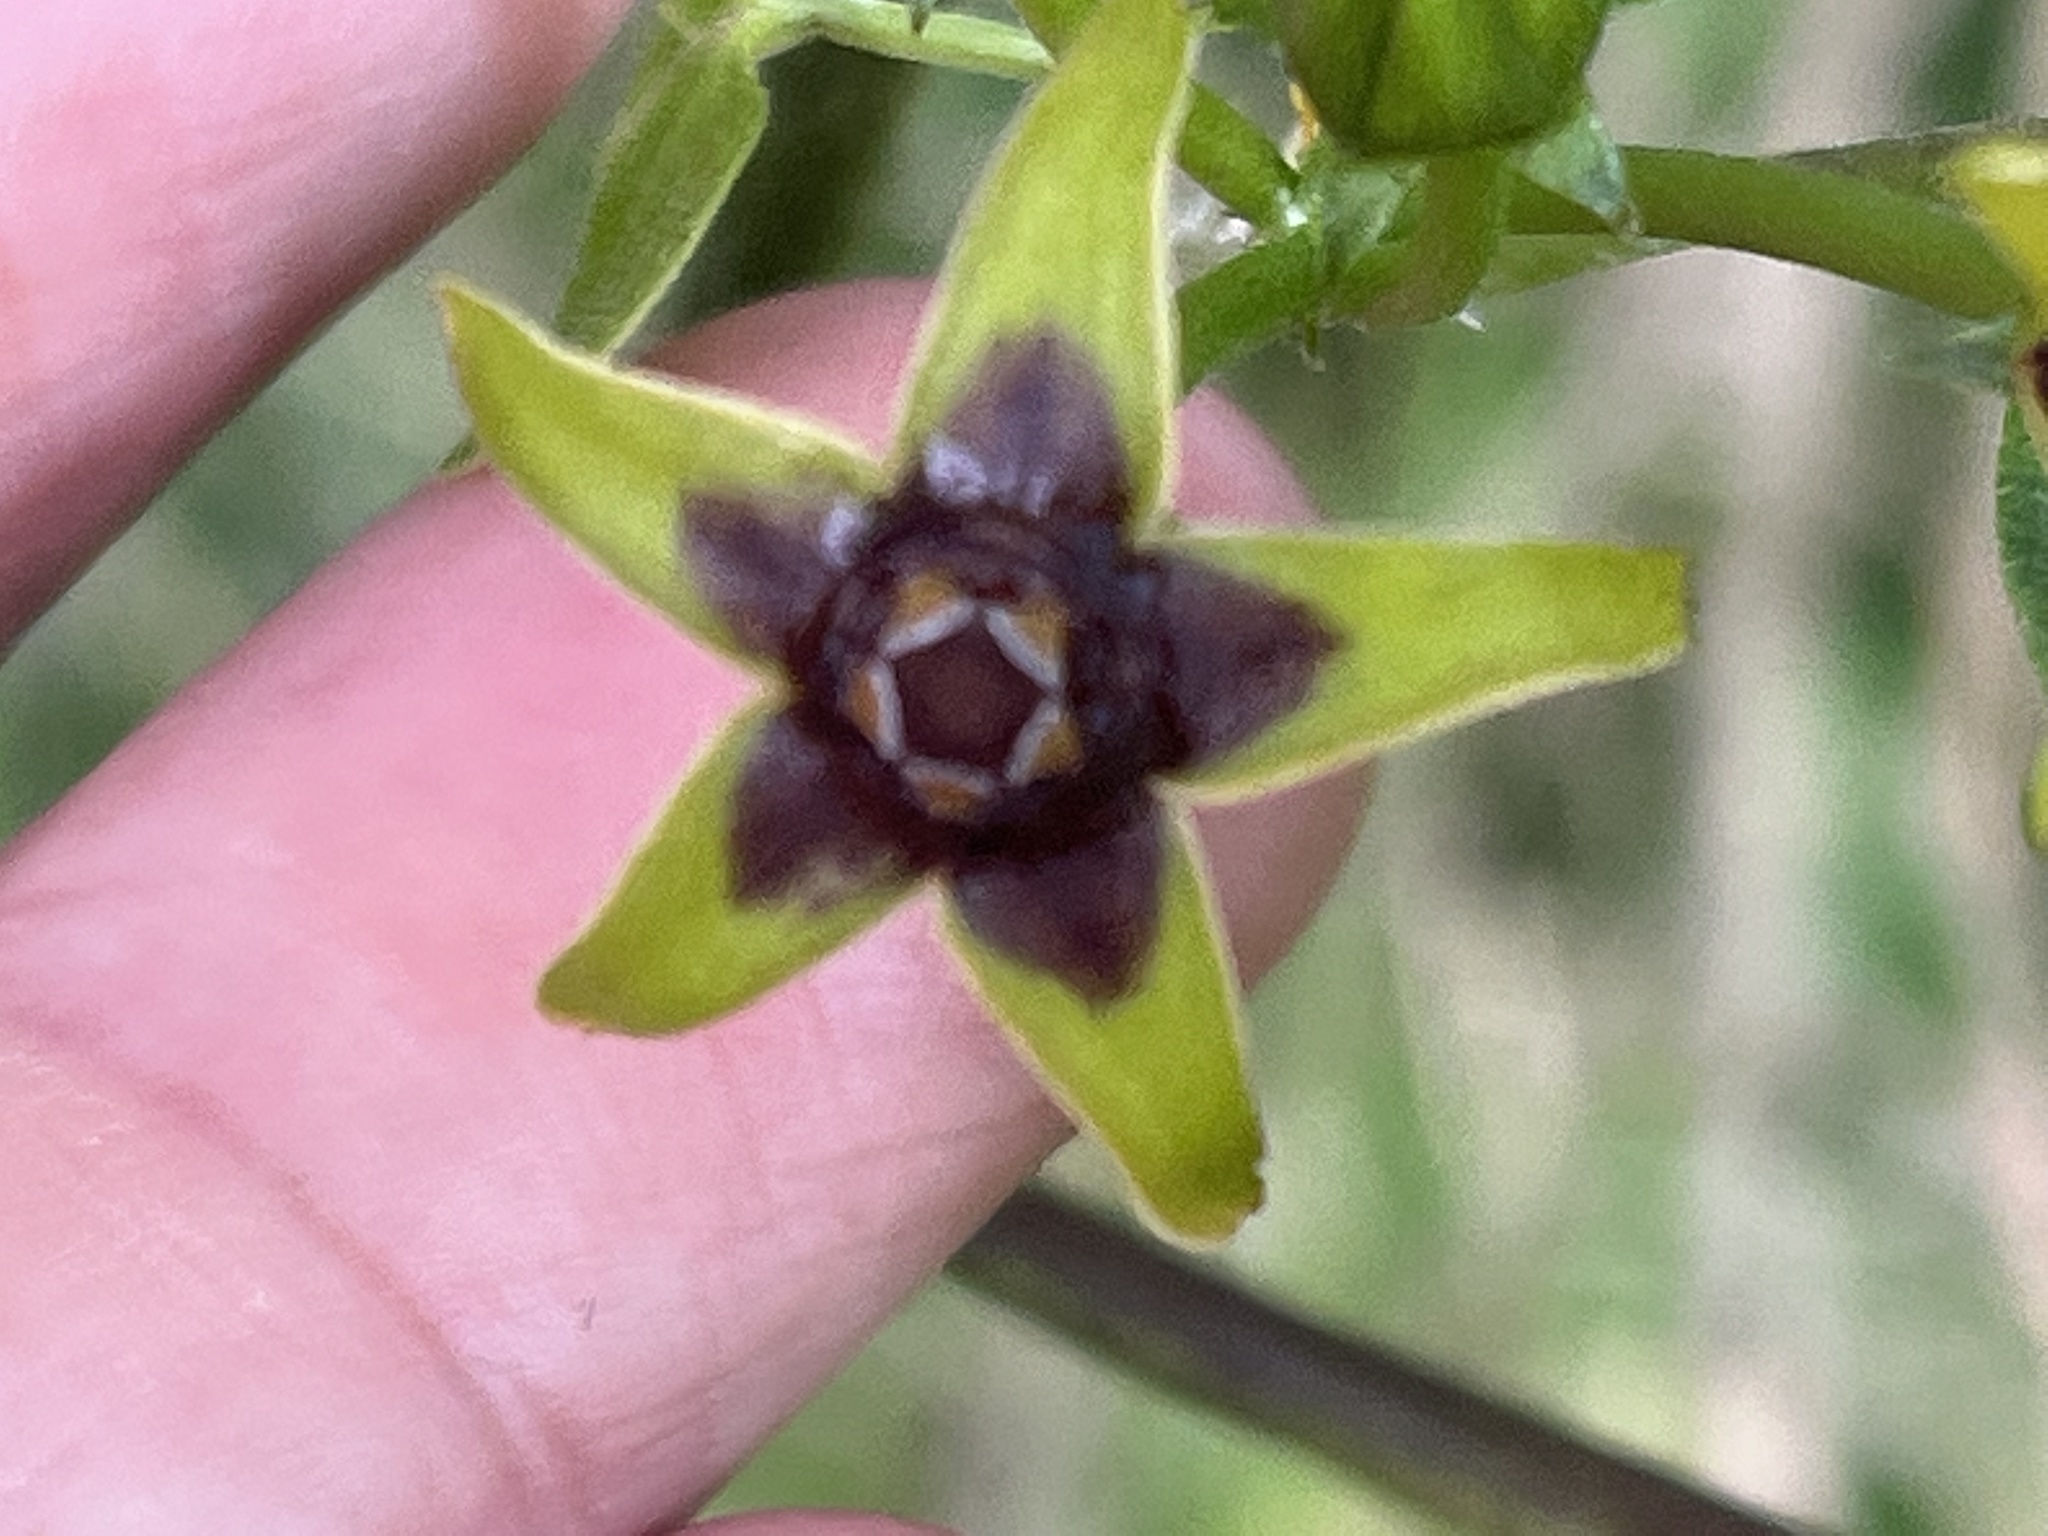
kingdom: Plantae
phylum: Tracheophyta
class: Magnoliopsida
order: Gentianales
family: Apocynaceae
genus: Gonolobus
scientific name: Gonolobus suberosus
